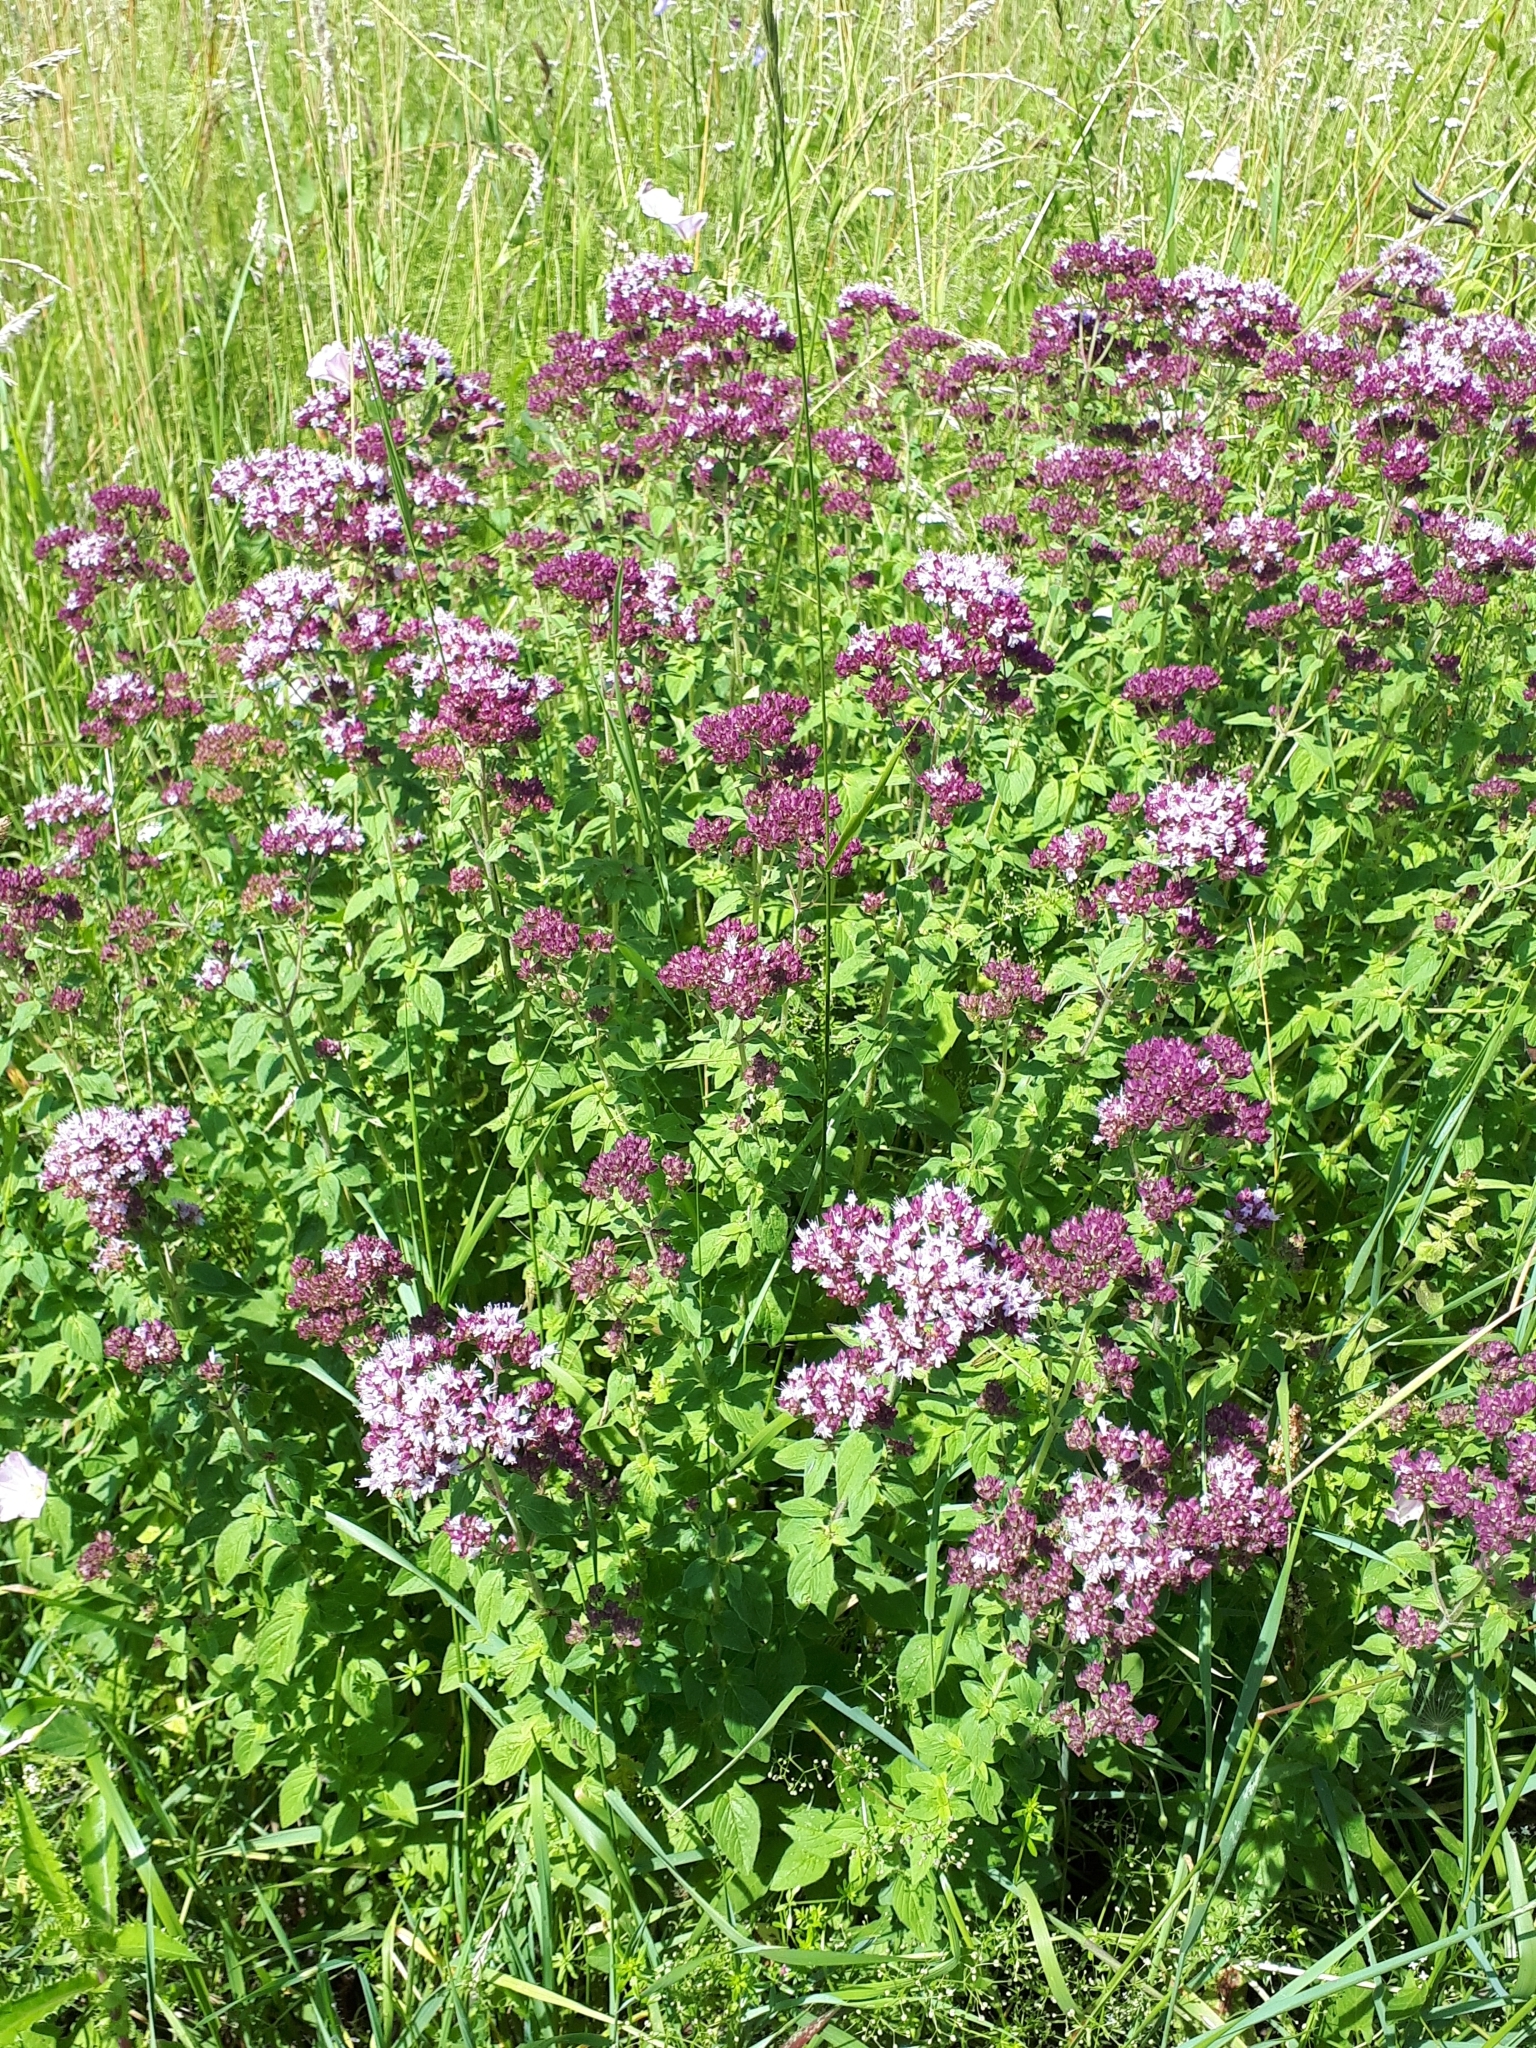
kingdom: Plantae
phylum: Tracheophyta
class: Magnoliopsida
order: Lamiales
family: Lamiaceae
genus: Origanum
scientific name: Origanum vulgare
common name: Wild marjoram
